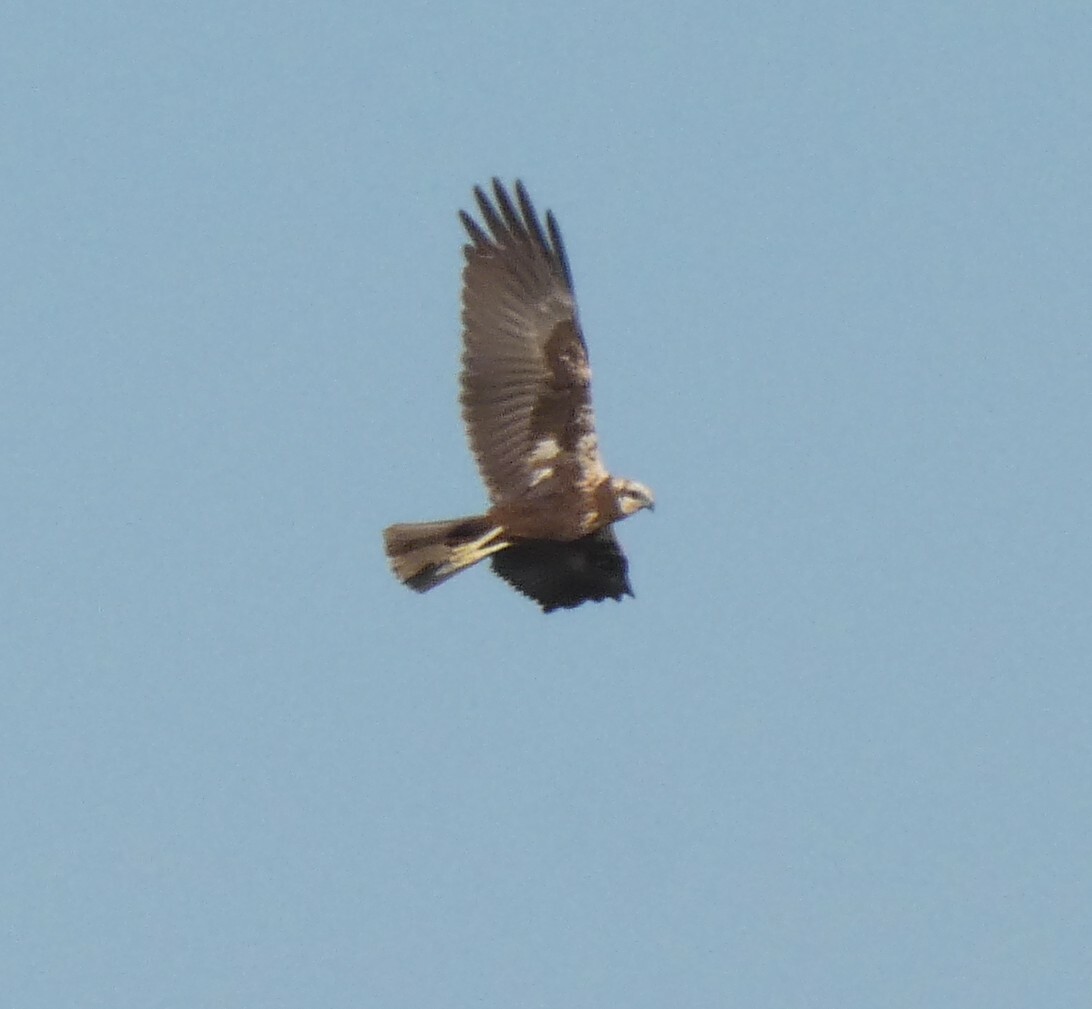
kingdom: Animalia
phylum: Chordata
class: Aves
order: Accipitriformes
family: Accipitridae
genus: Circus
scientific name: Circus aeruginosus
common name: Western marsh harrier
